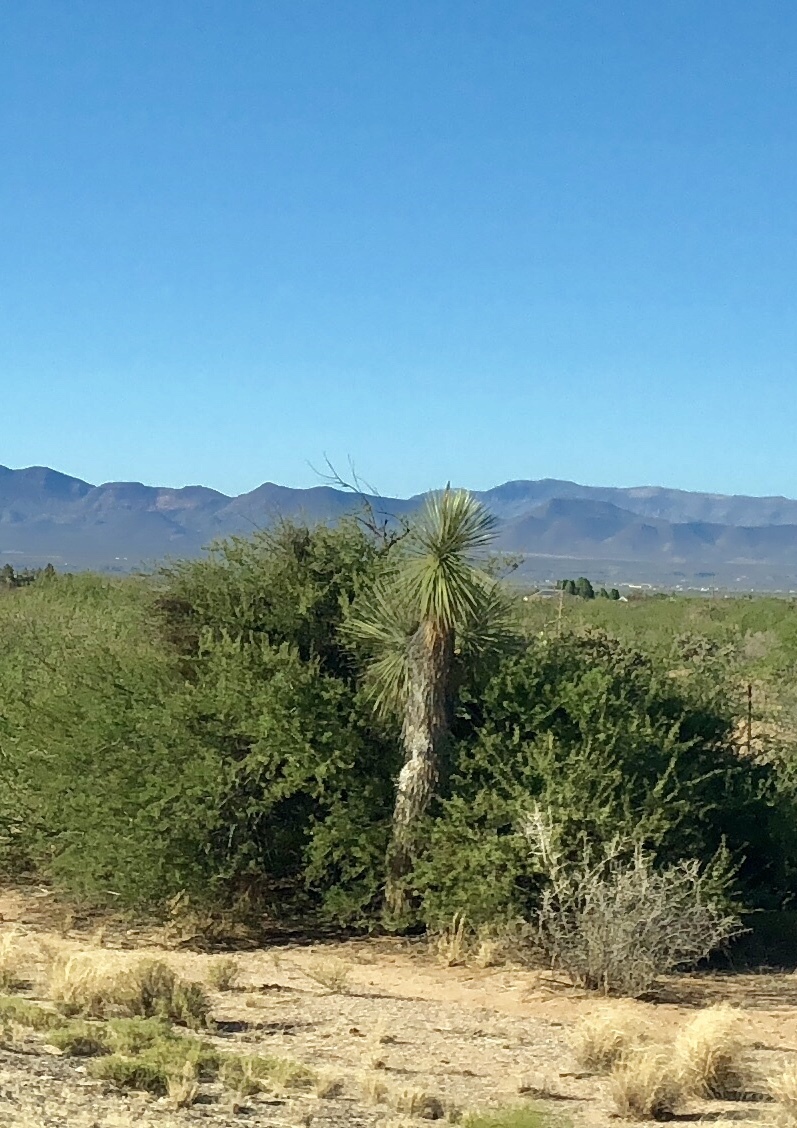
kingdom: Plantae
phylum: Tracheophyta
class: Liliopsida
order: Asparagales
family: Asparagaceae
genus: Yucca
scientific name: Yucca elata
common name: Palmella
